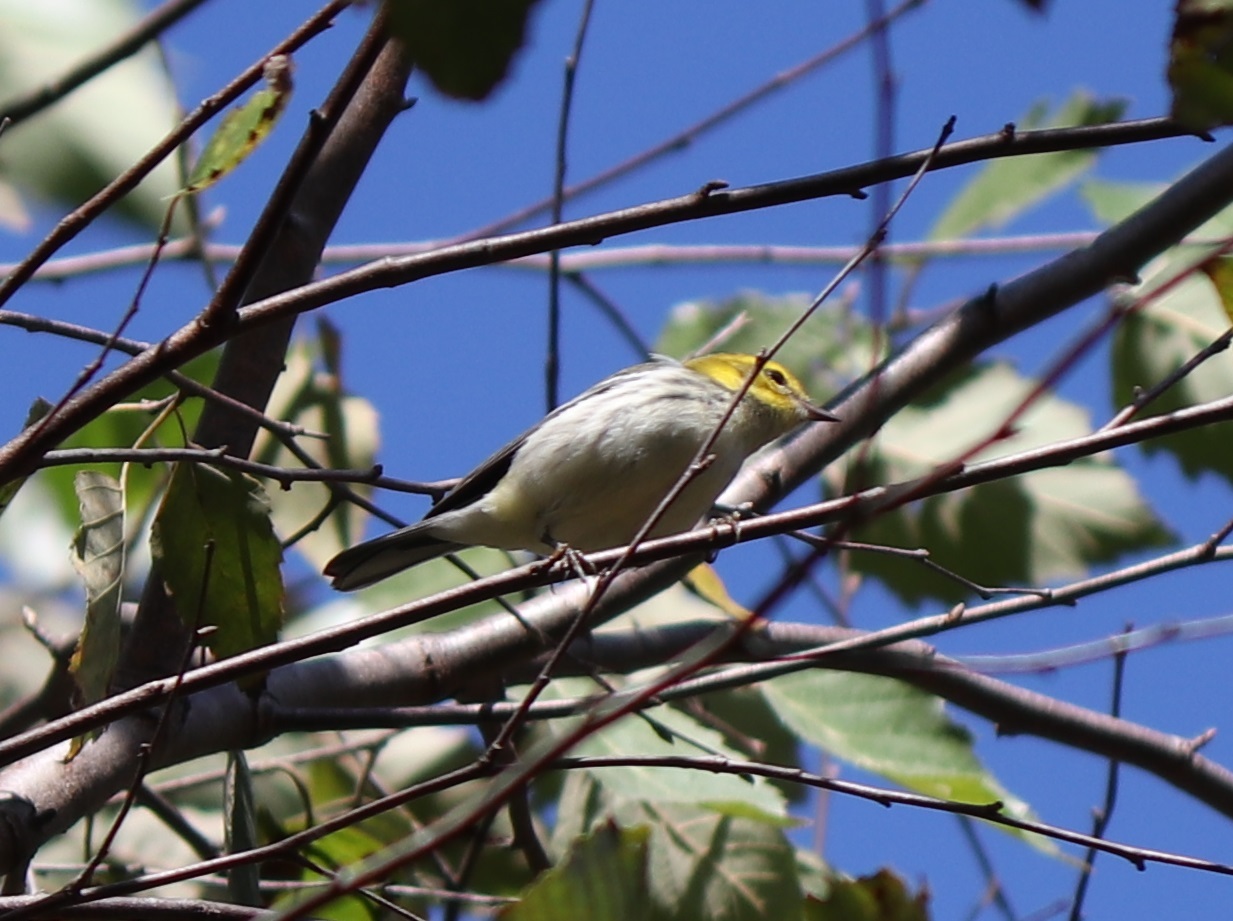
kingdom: Animalia
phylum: Chordata
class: Aves
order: Passeriformes
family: Parulidae
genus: Setophaga
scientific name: Setophaga virens
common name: Black-throated green warbler
